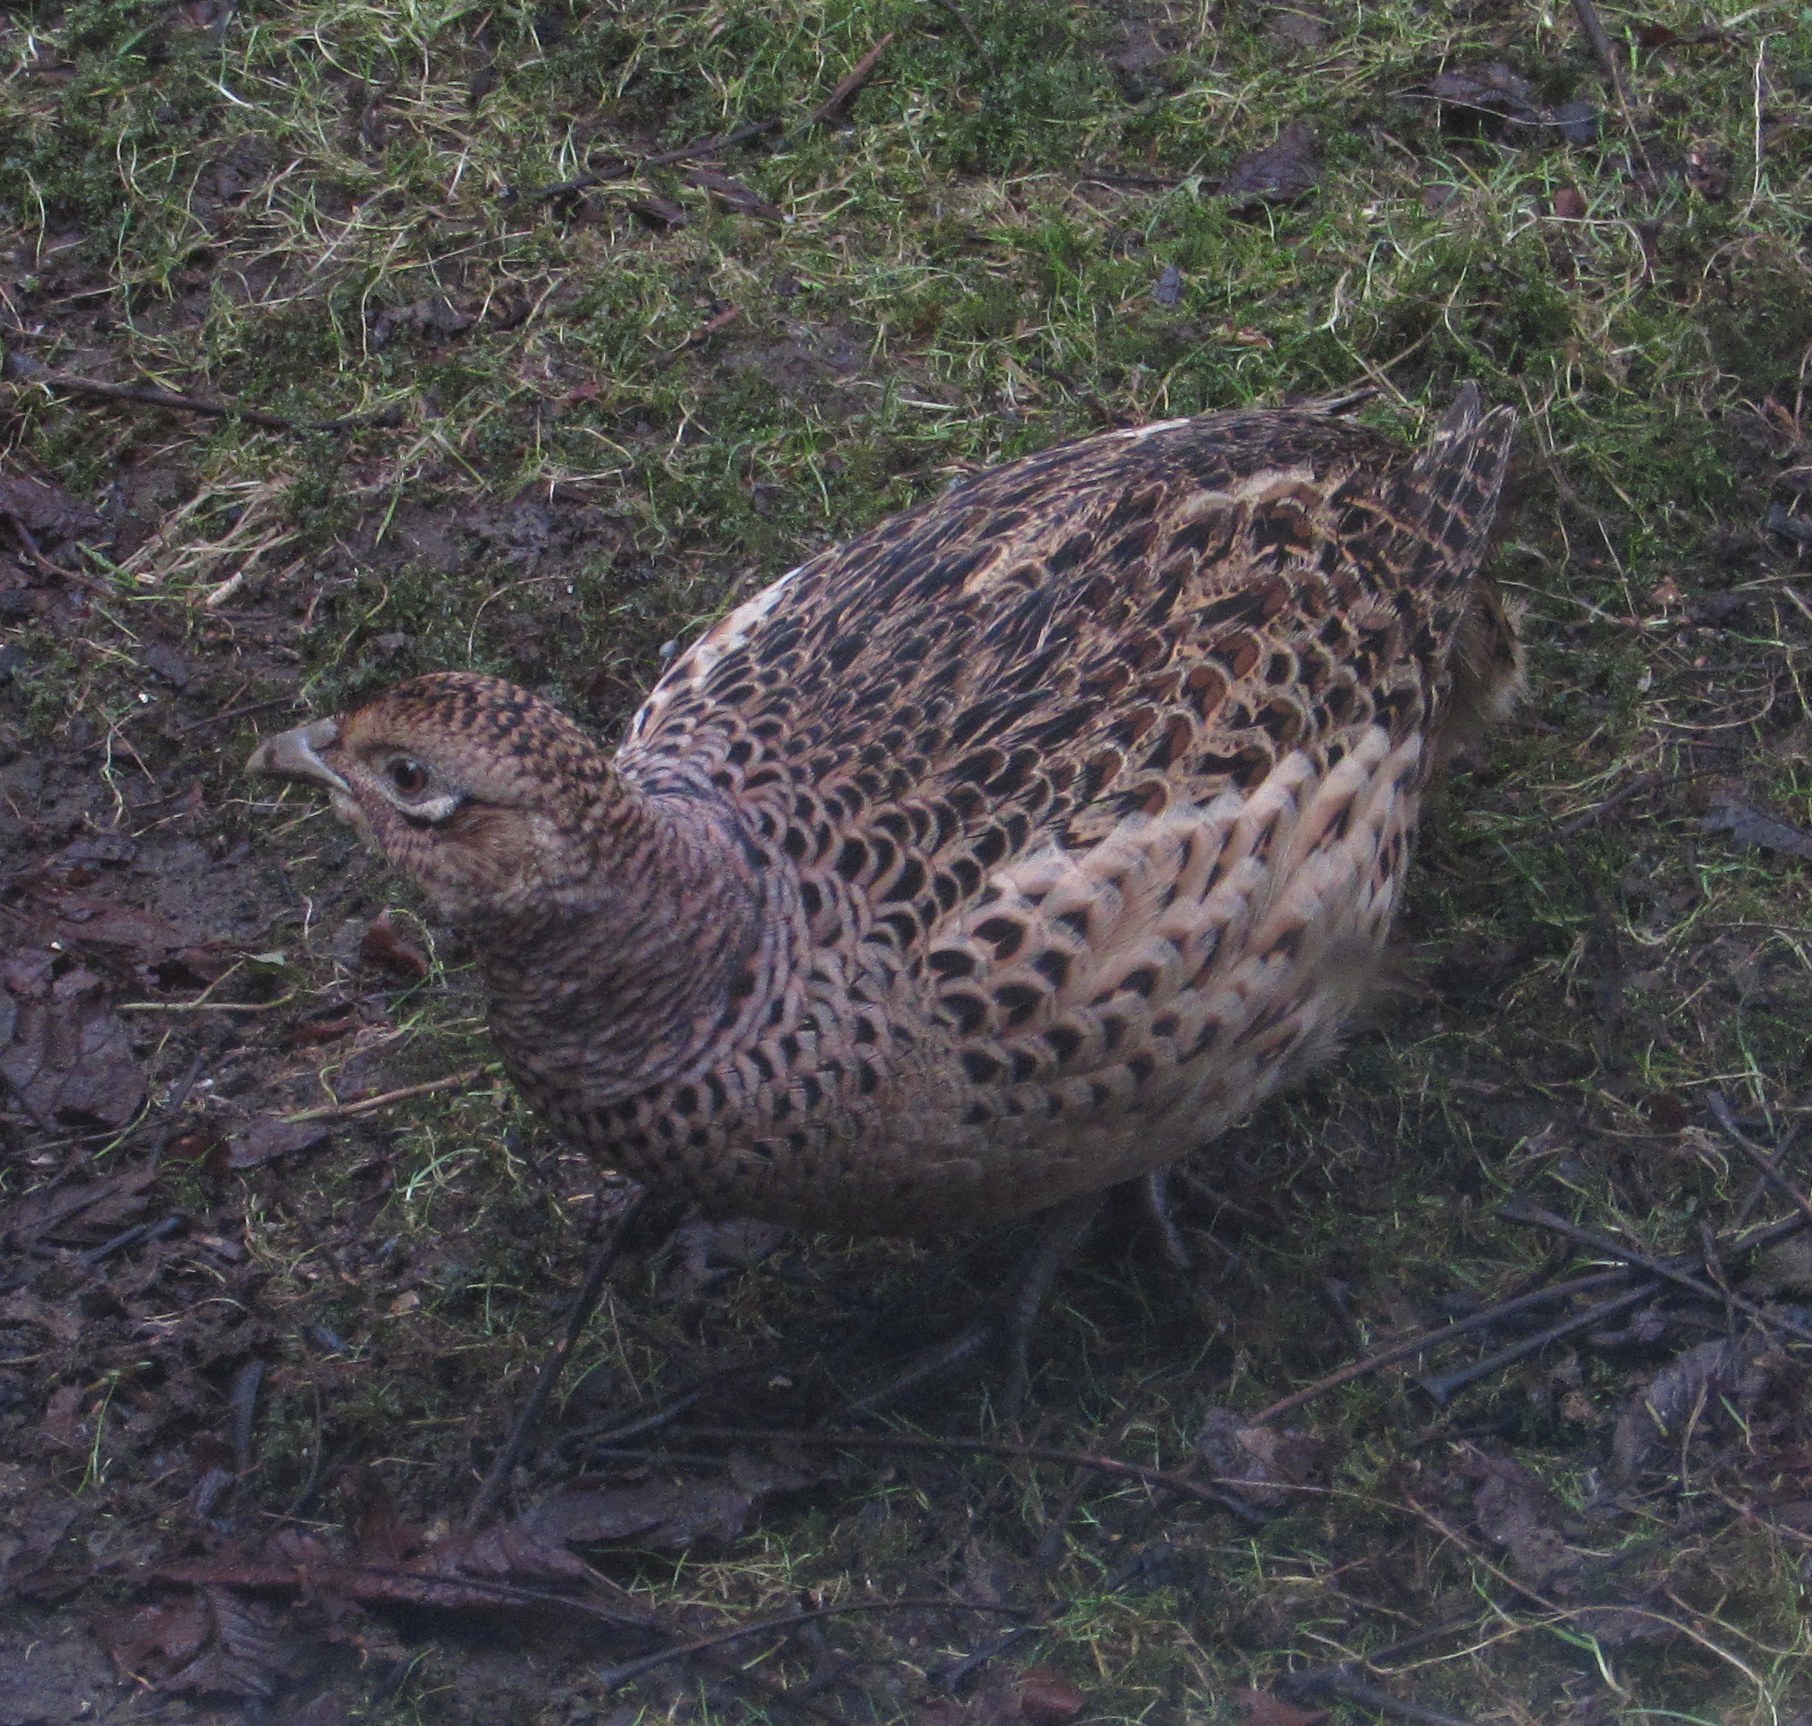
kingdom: Animalia
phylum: Chordata
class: Aves
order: Galliformes
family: Phasianidae
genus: Phasianus
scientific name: Phasianus colchicus
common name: Common pheasant
